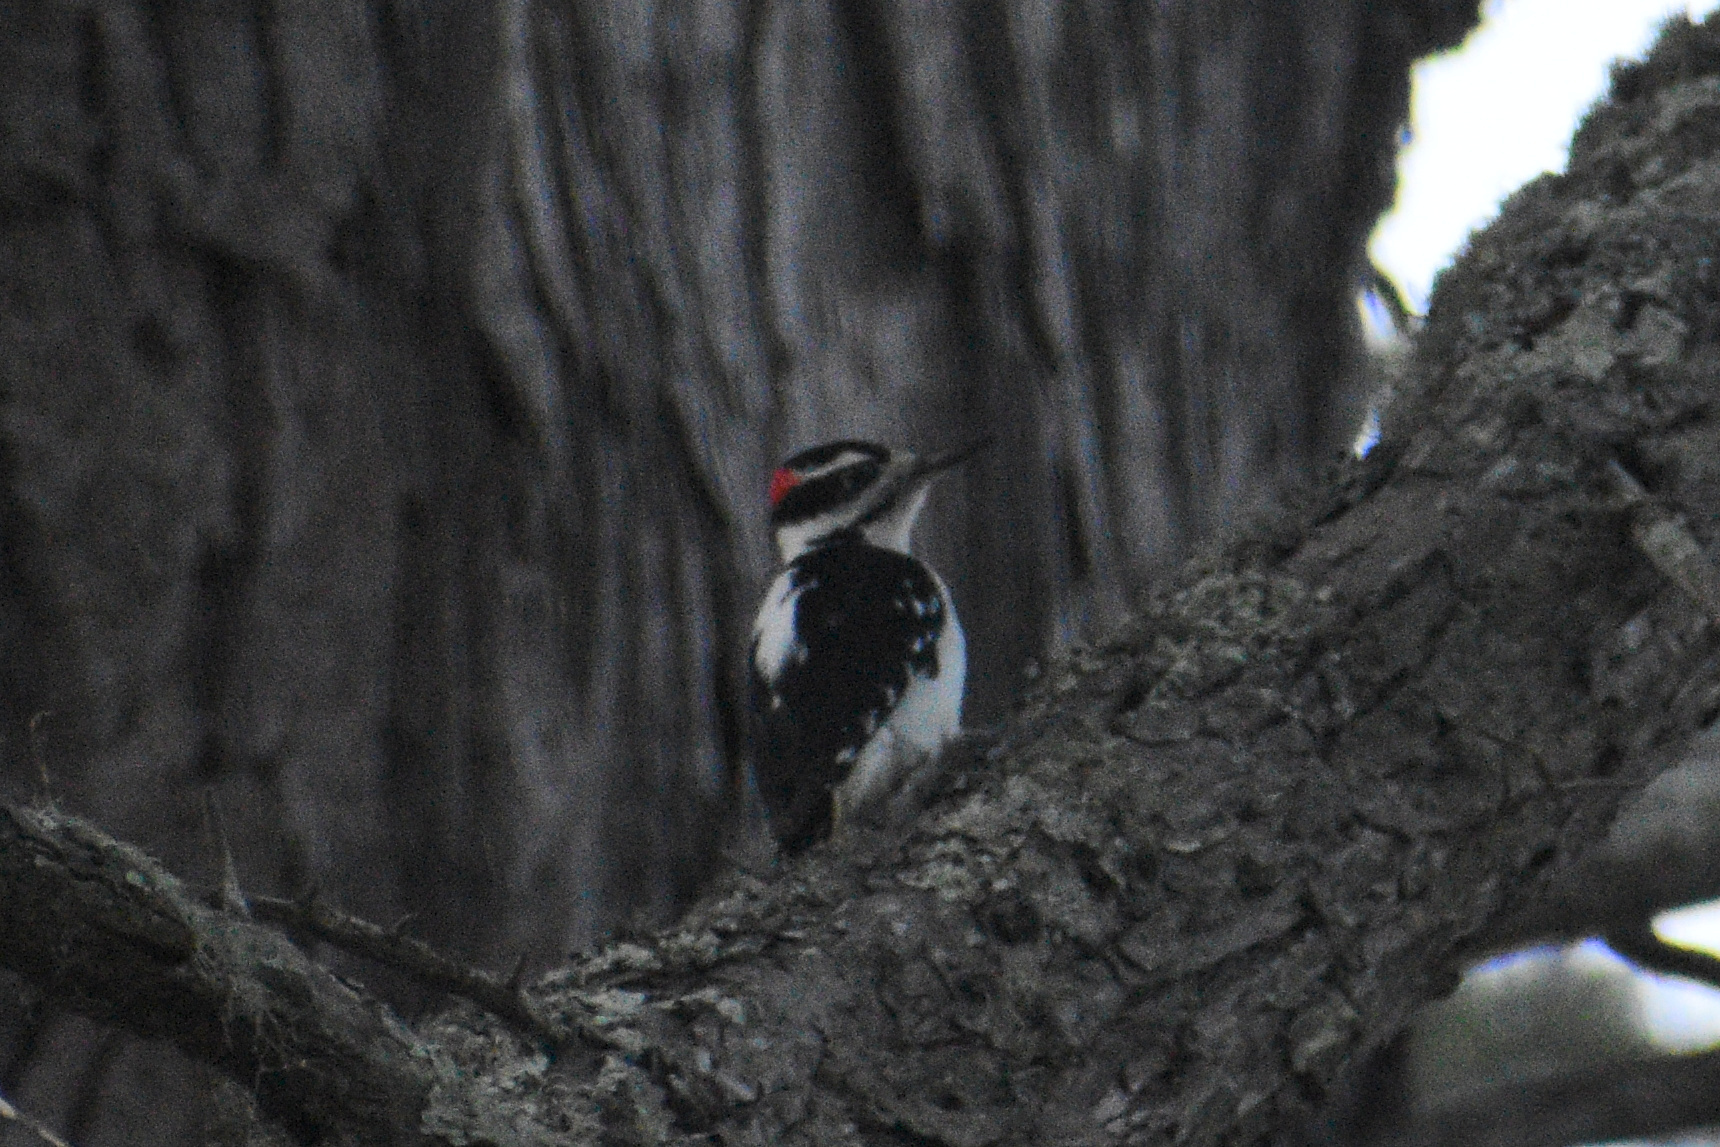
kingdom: Animalia
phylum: Chordata
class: Aves
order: Piciformes
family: Picidae
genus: Leuconotopicus
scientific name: Leuconotopicus villosus
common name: Hairy woodpecker
